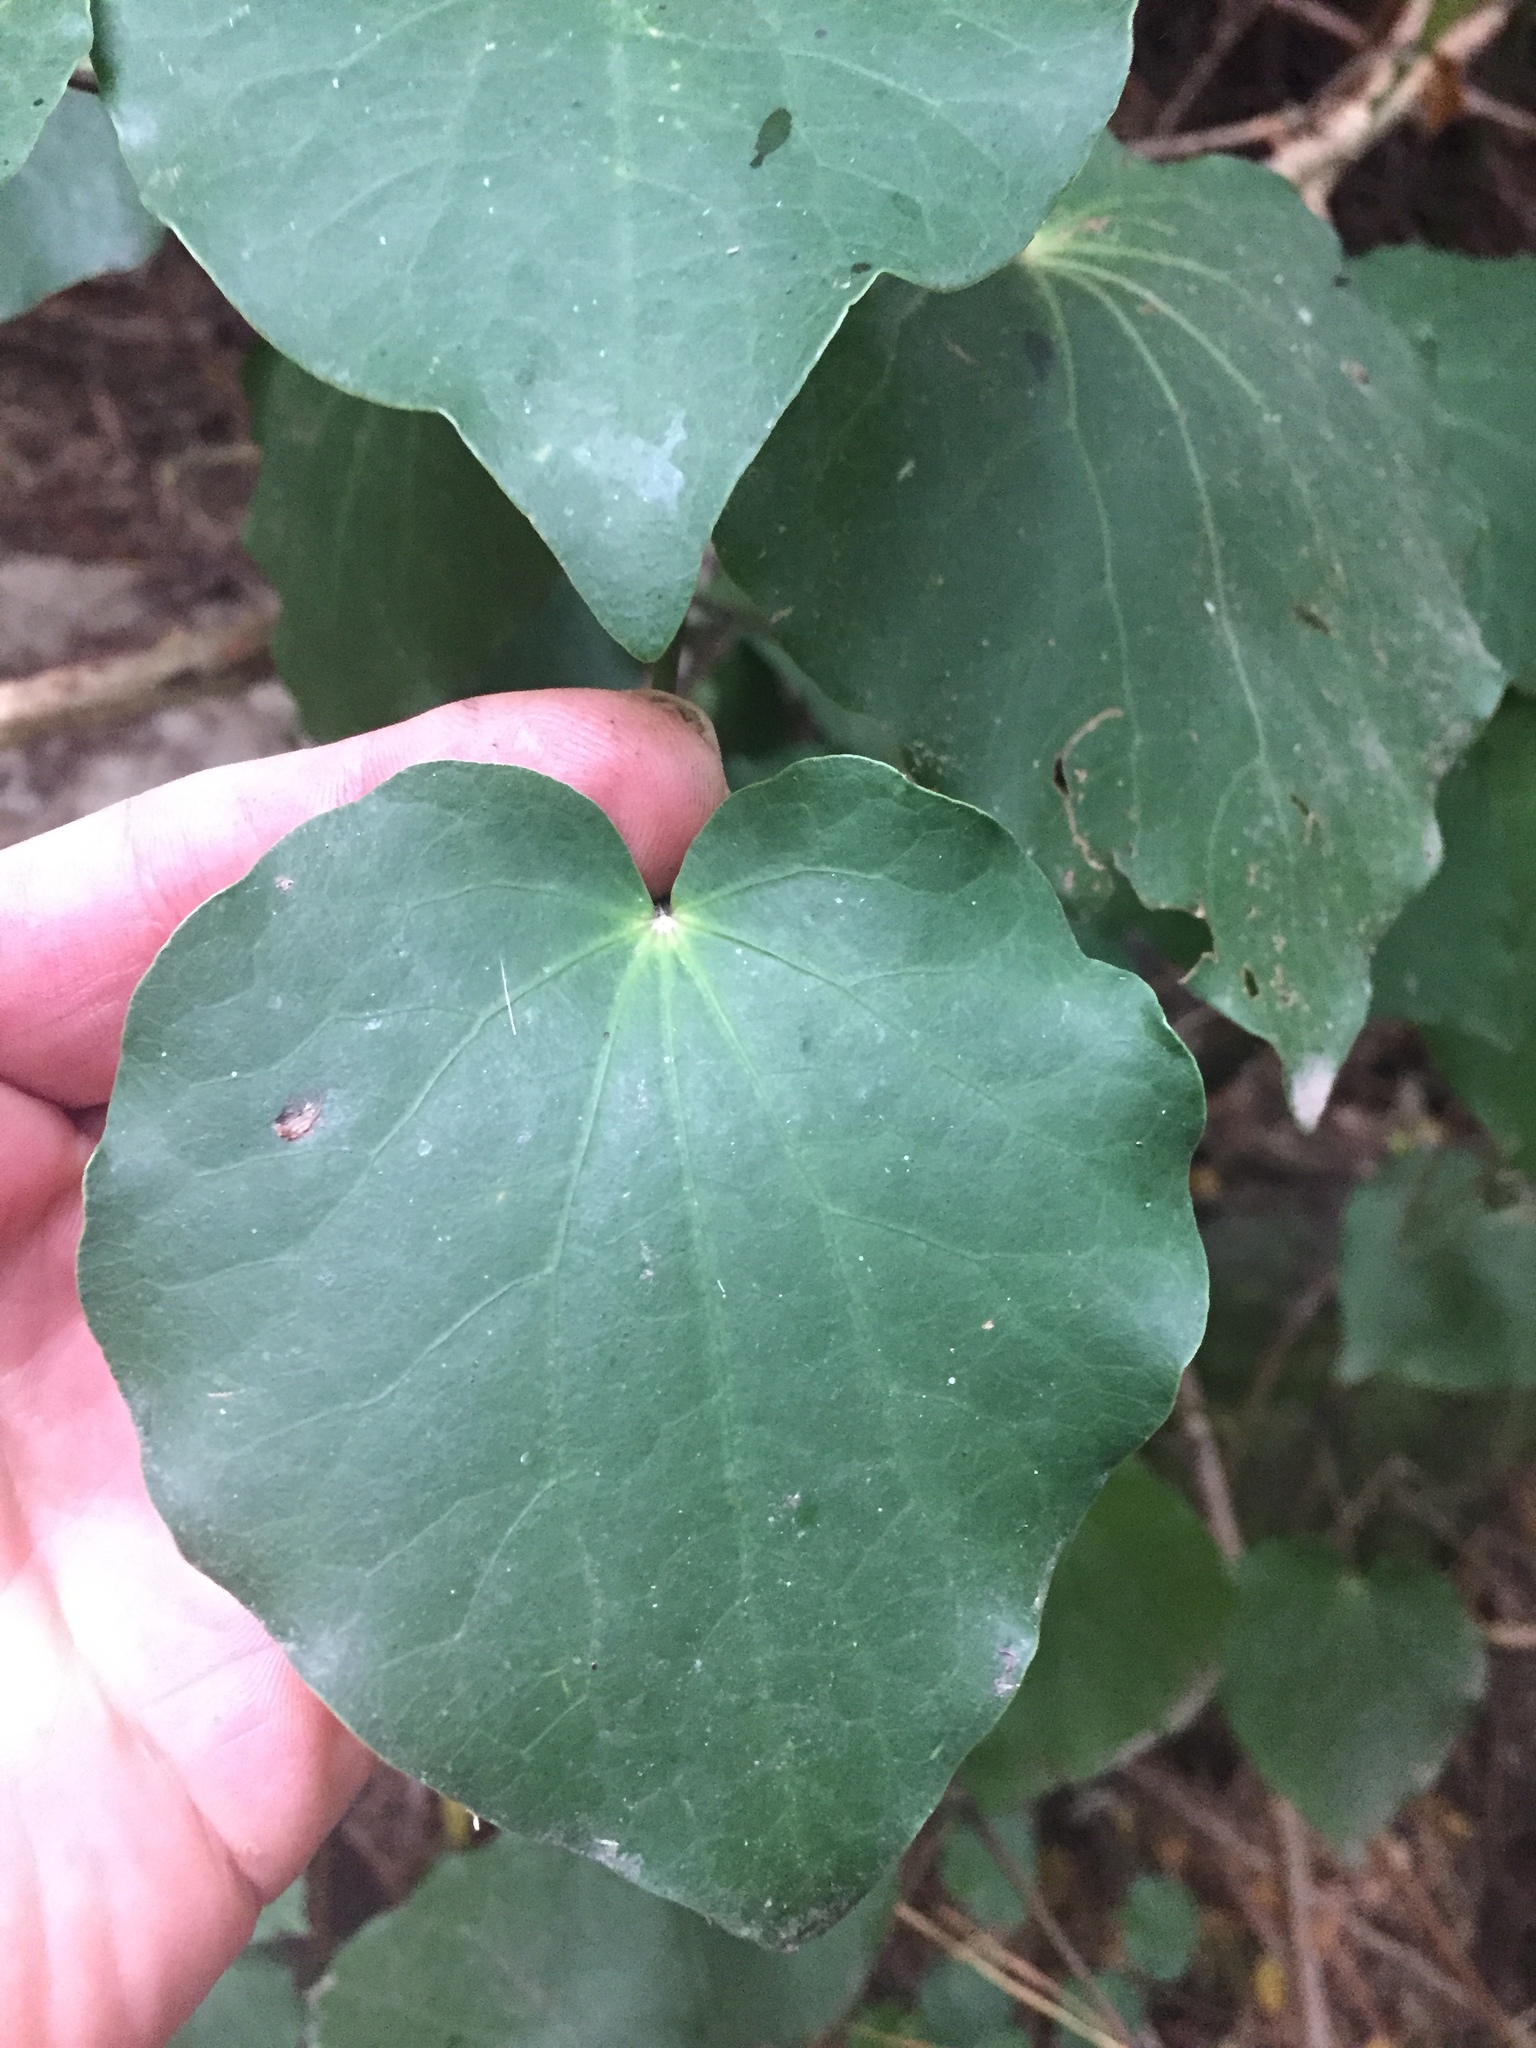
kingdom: Plantae
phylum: Tracheophyta
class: Magnoliopsida
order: Piperales
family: Piperaceae
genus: Macropiper
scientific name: Macropiper excelsum
